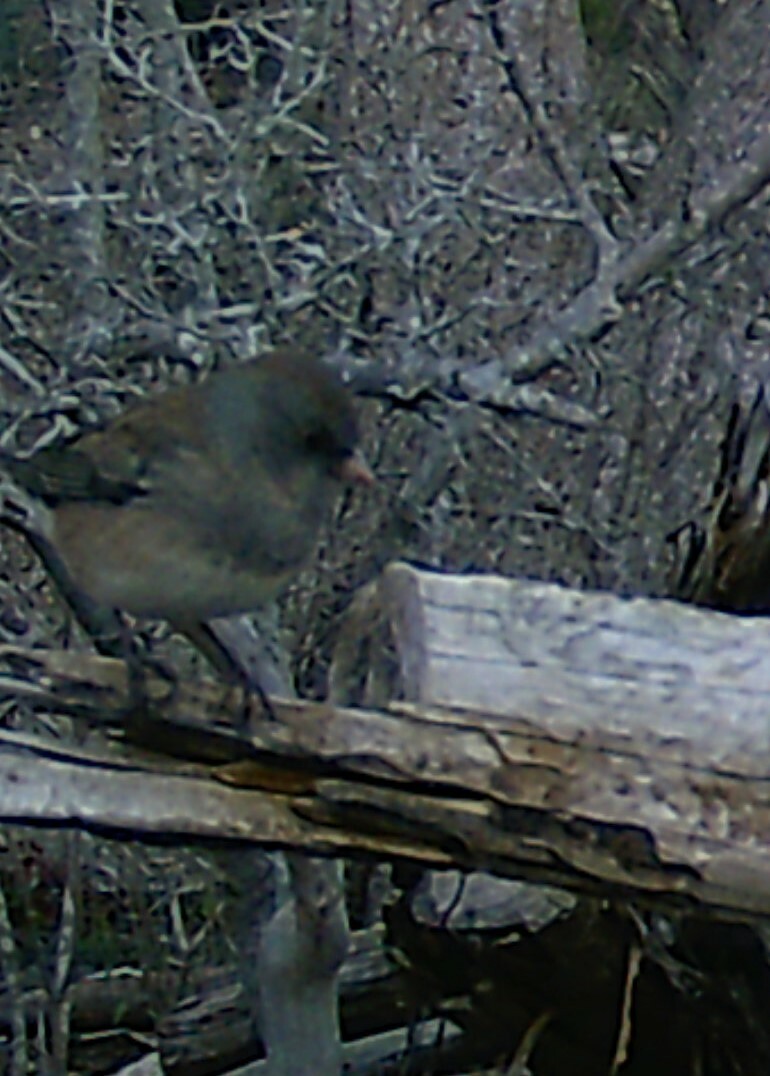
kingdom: Animalia
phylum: Chordata
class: Aves
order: Passeriformes
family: Passerellidae
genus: Junco
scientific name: Junco hyemalis
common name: Dark-eyed junco
